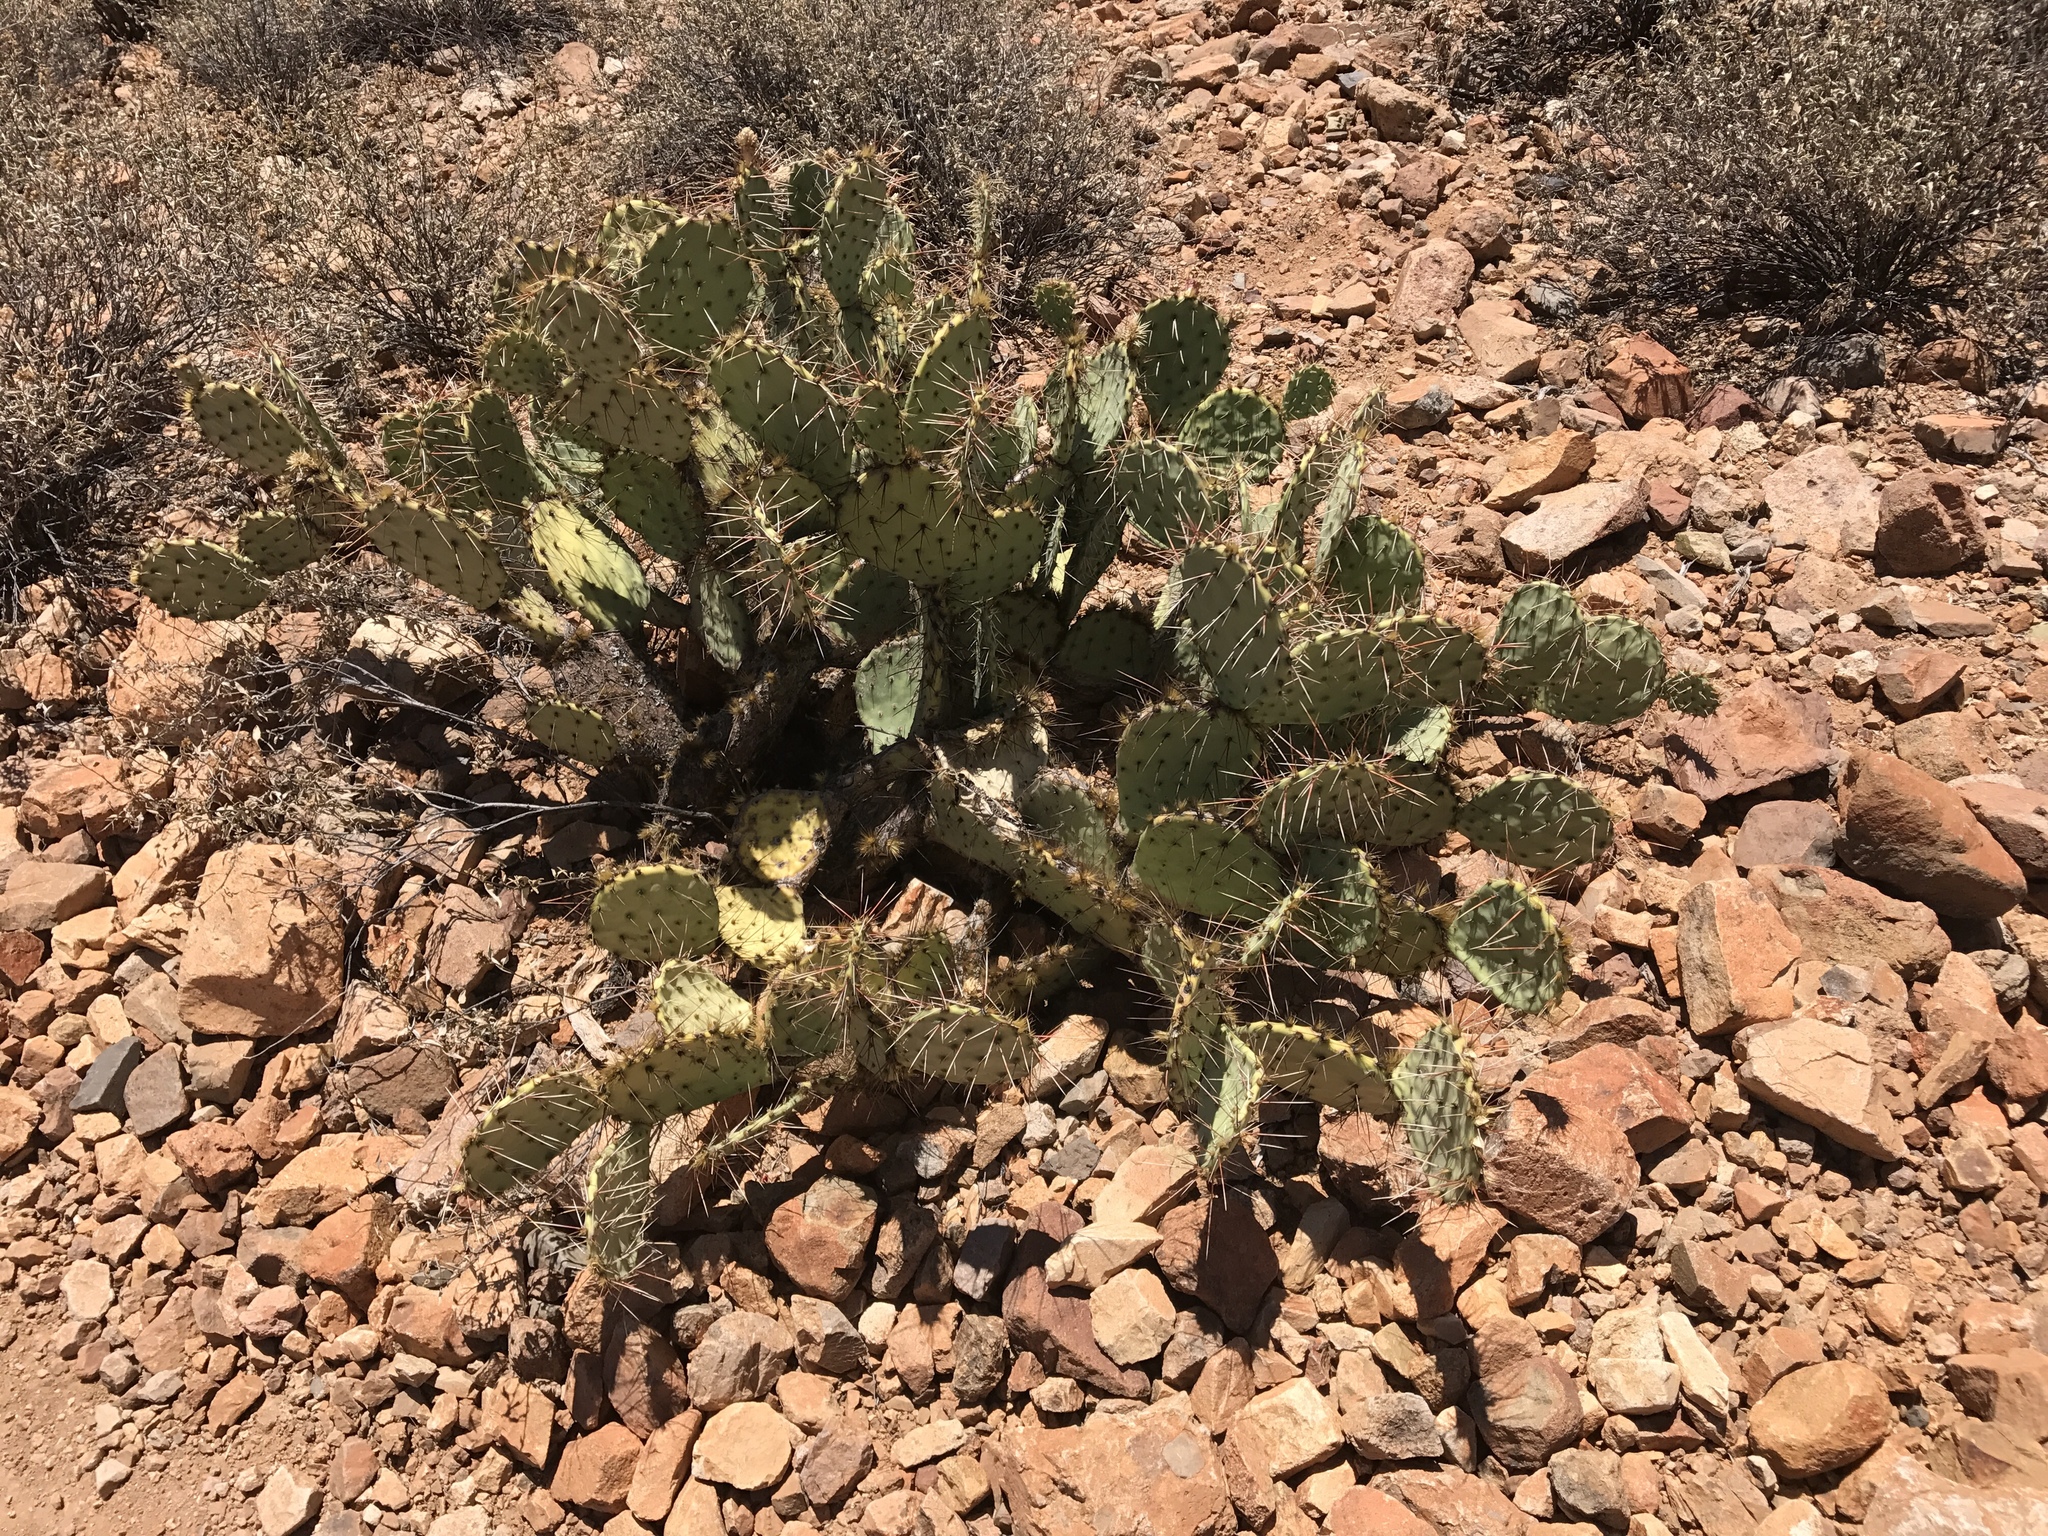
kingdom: Plantae
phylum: Tracheophyta
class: Magnoliopsida
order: Caryophyllales
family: Cactaceae
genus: Opuntia
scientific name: Opuntia phaeacantha
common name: New mexico prickly-pear
